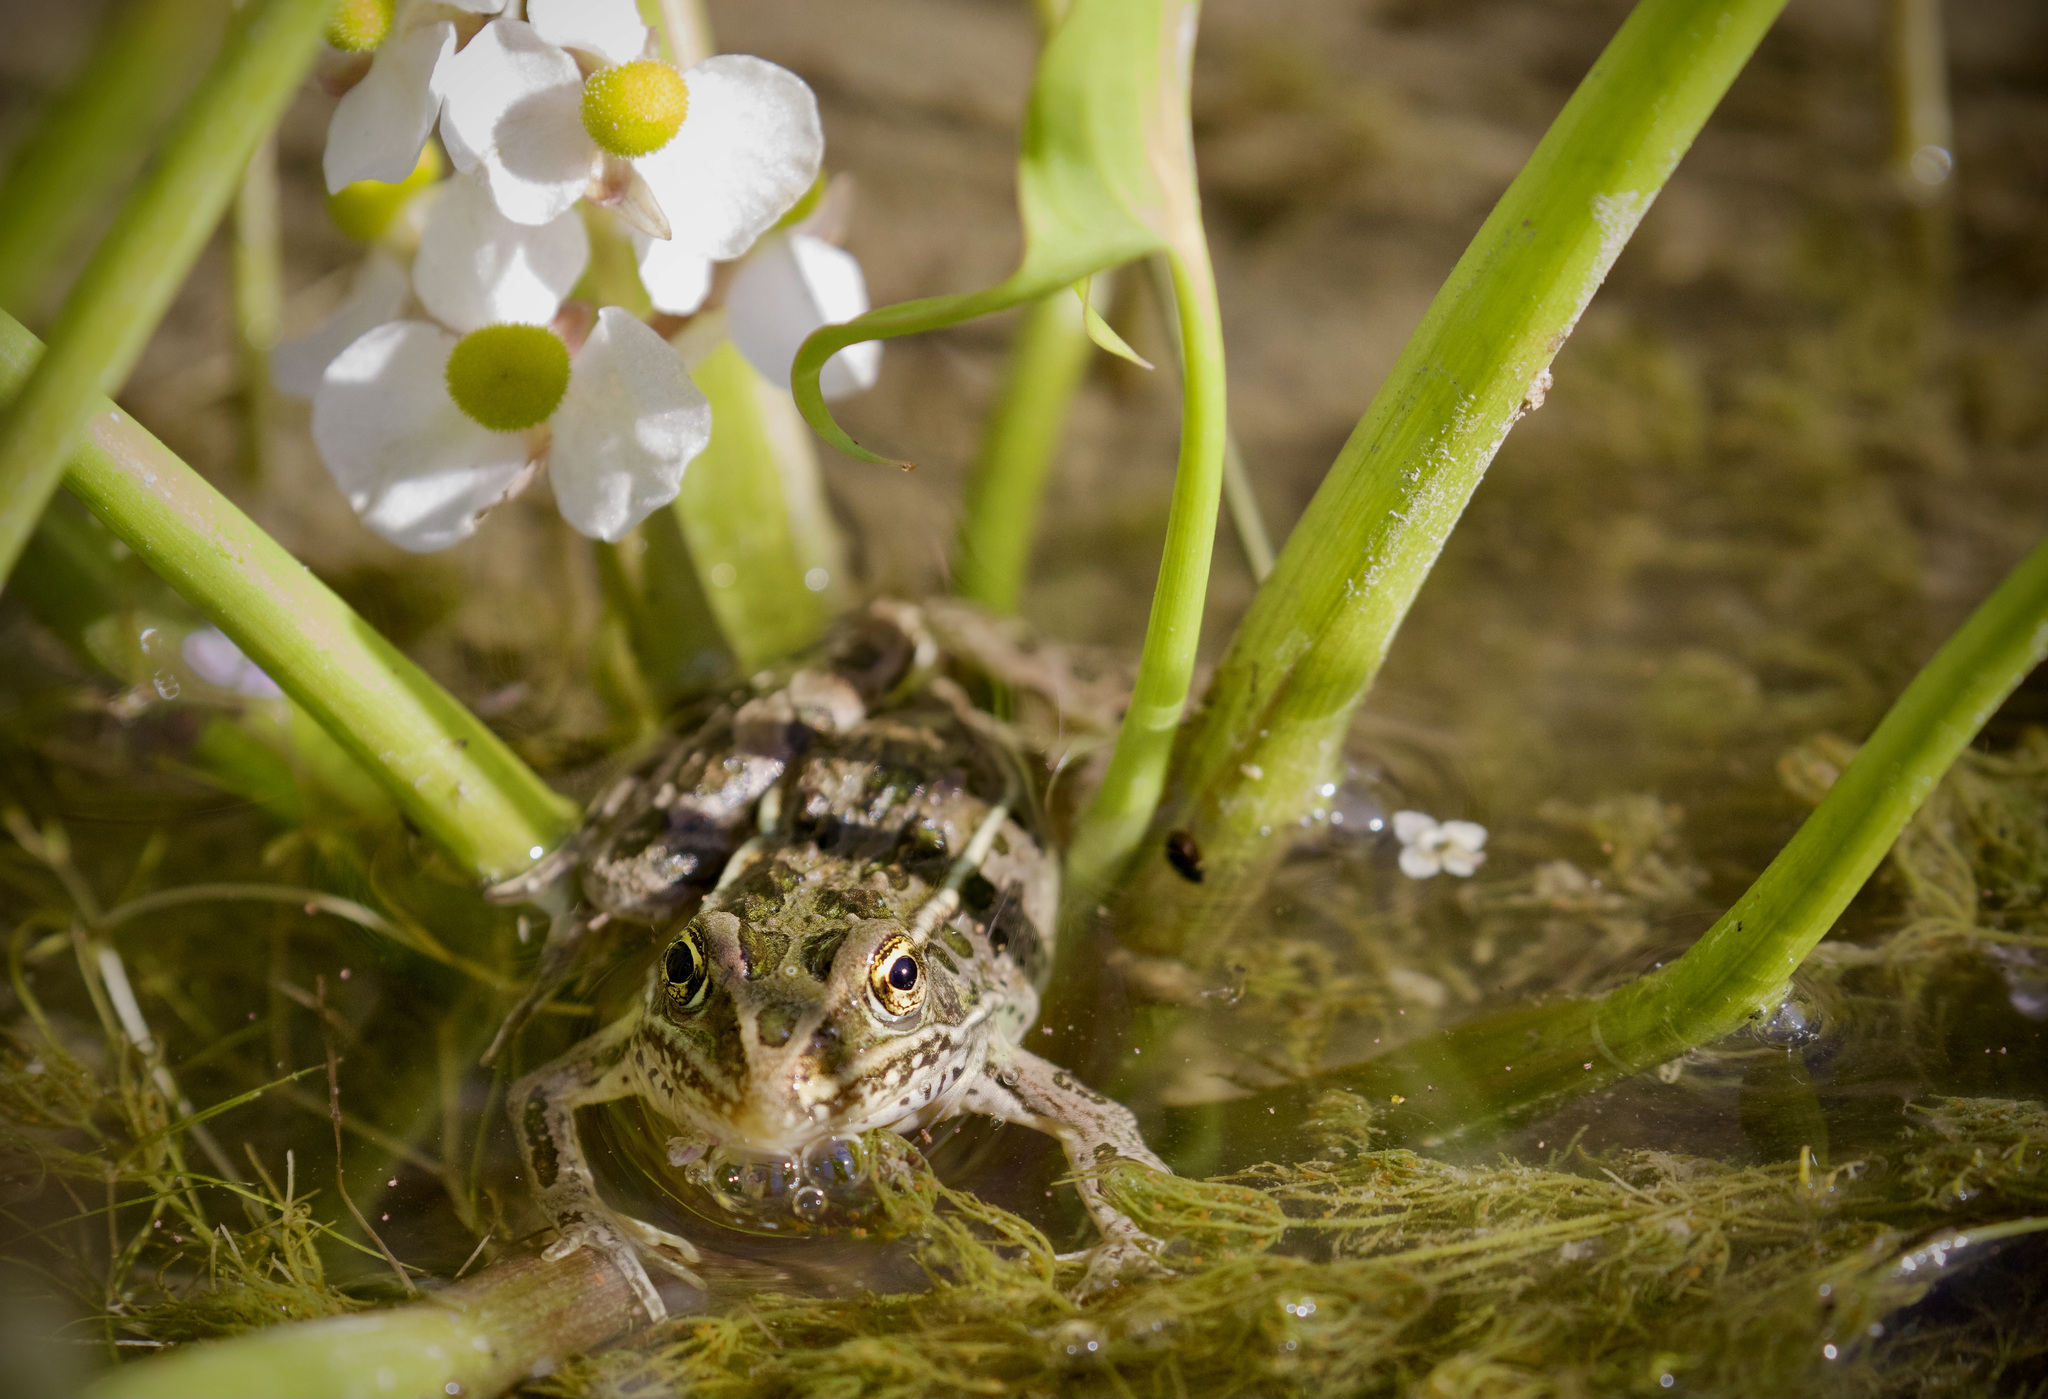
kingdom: Plantae
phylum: Tracheophyta
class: Liliopsida
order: Alismatales
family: Alismataceae
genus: Sagittaria
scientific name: Sagittaria cuneata
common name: Northern arrowhead
